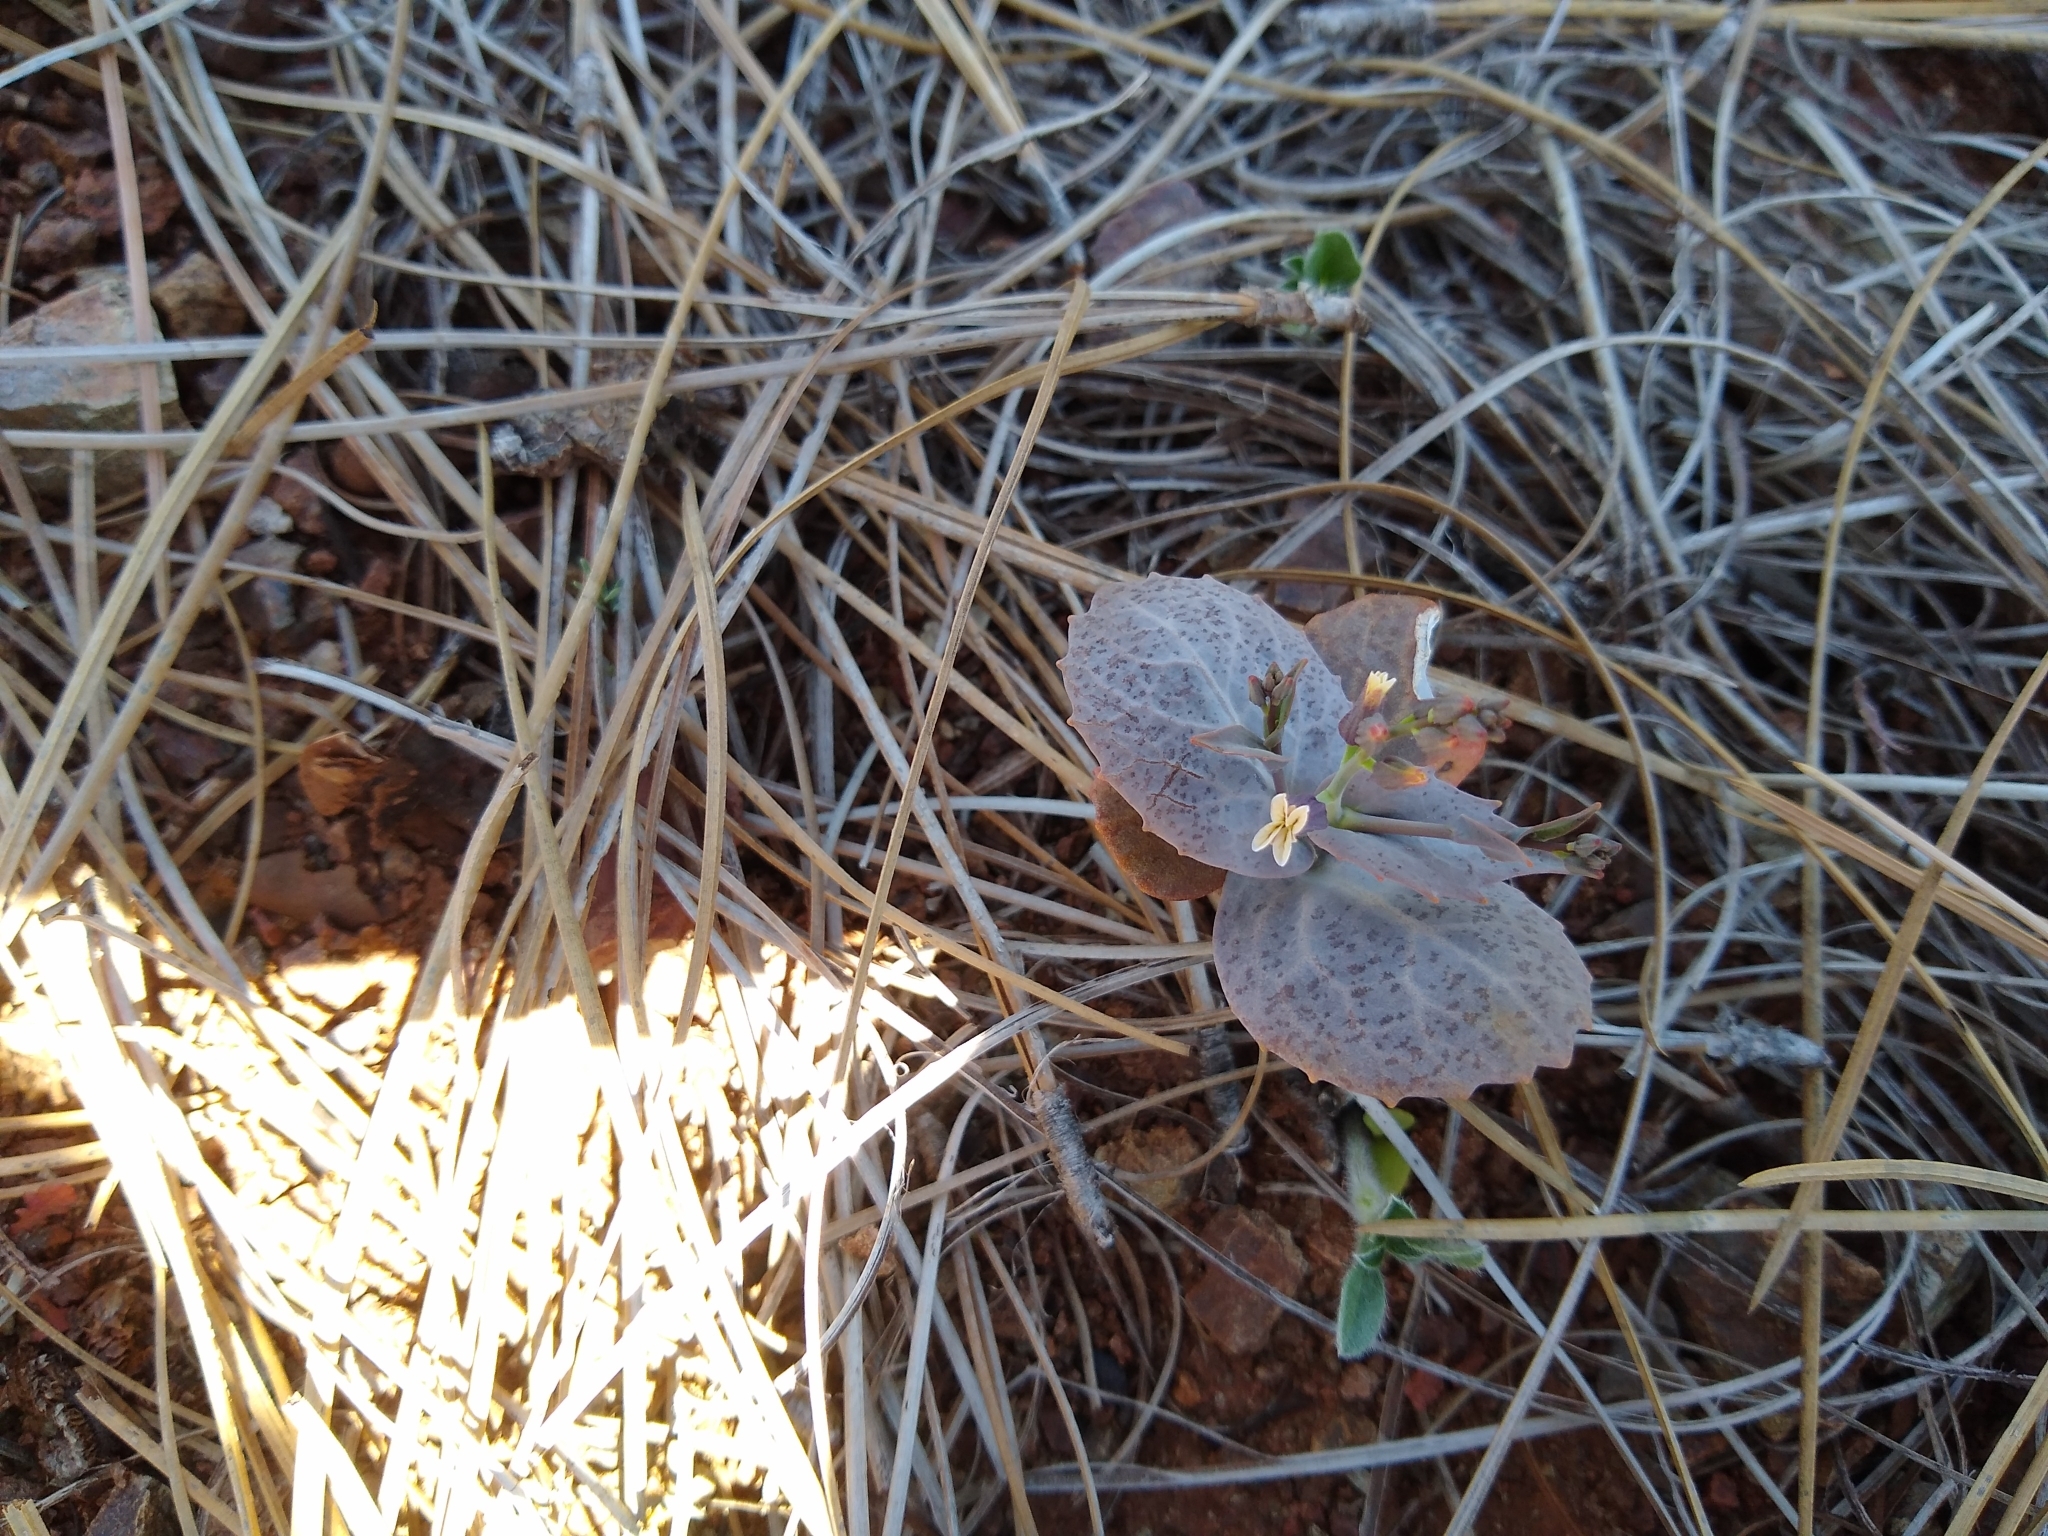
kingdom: Plantae
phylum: Tracheophyta
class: Magnoliopsida
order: Brassicales
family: Brassicaceae
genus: Streptanthus
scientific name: Streptanthus breweri
